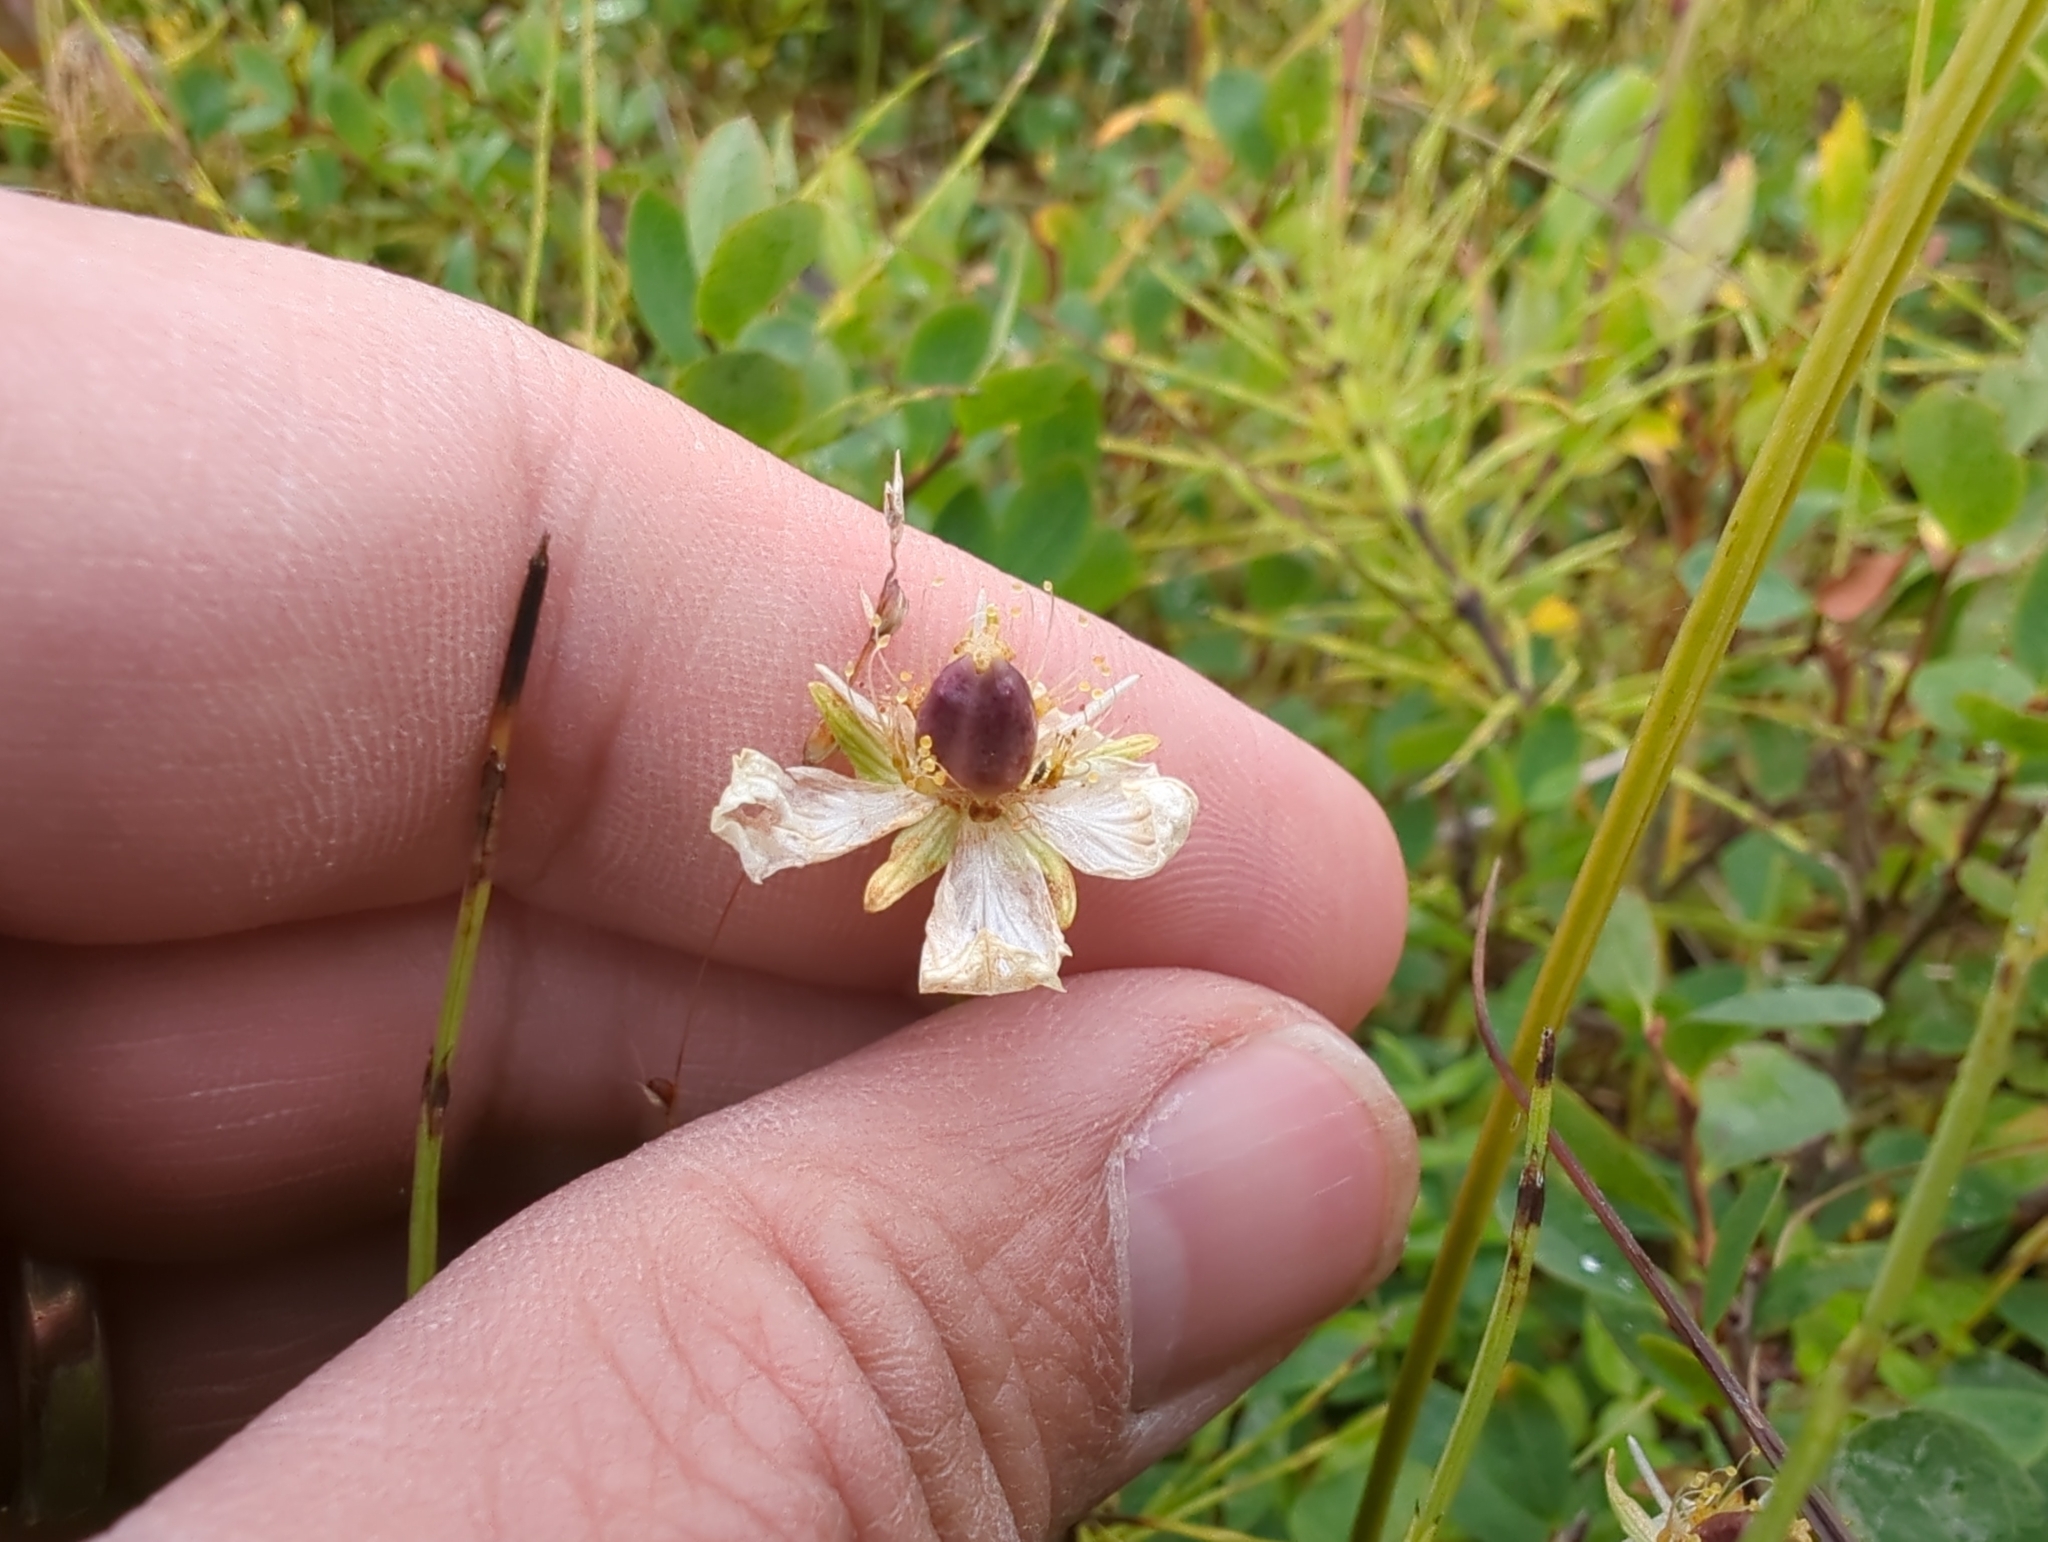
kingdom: Plantae
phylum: Tracheophyta
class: Magnoliopsida
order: Celastrales
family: Parnassiaceae
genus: Parnassia
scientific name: Parnassia palustris
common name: Grass-of-parnassus
